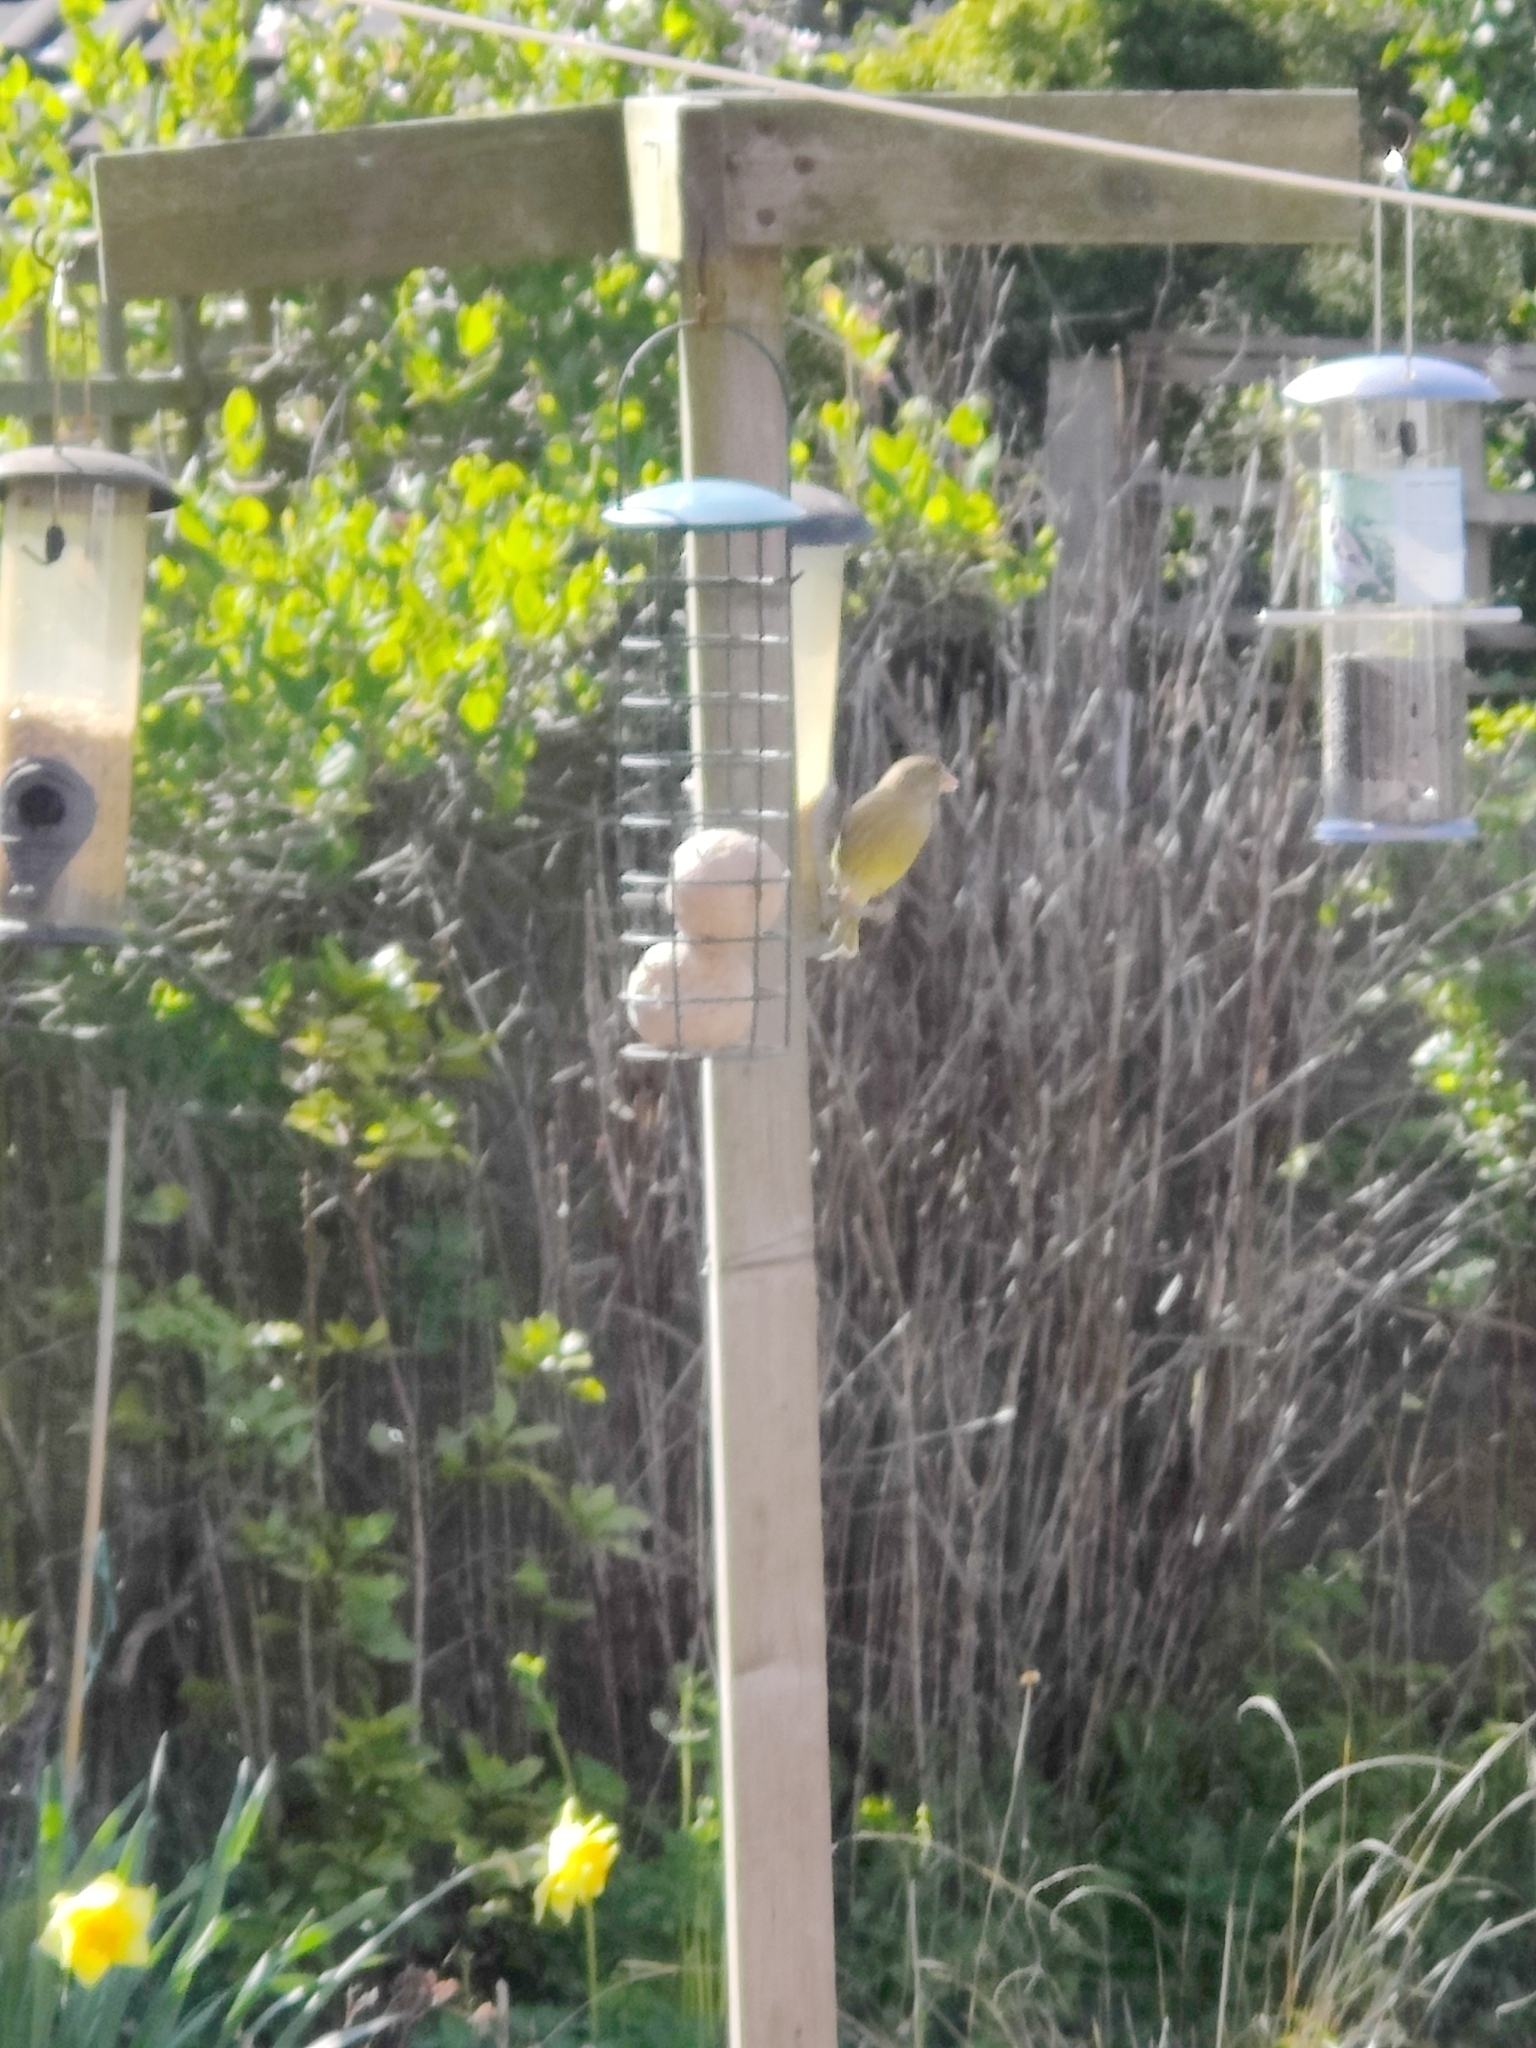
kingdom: Plantae
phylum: Tracheophyta
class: Liliopsida
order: Poales
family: Poaceae
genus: Chloris
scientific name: Chloris chloris
